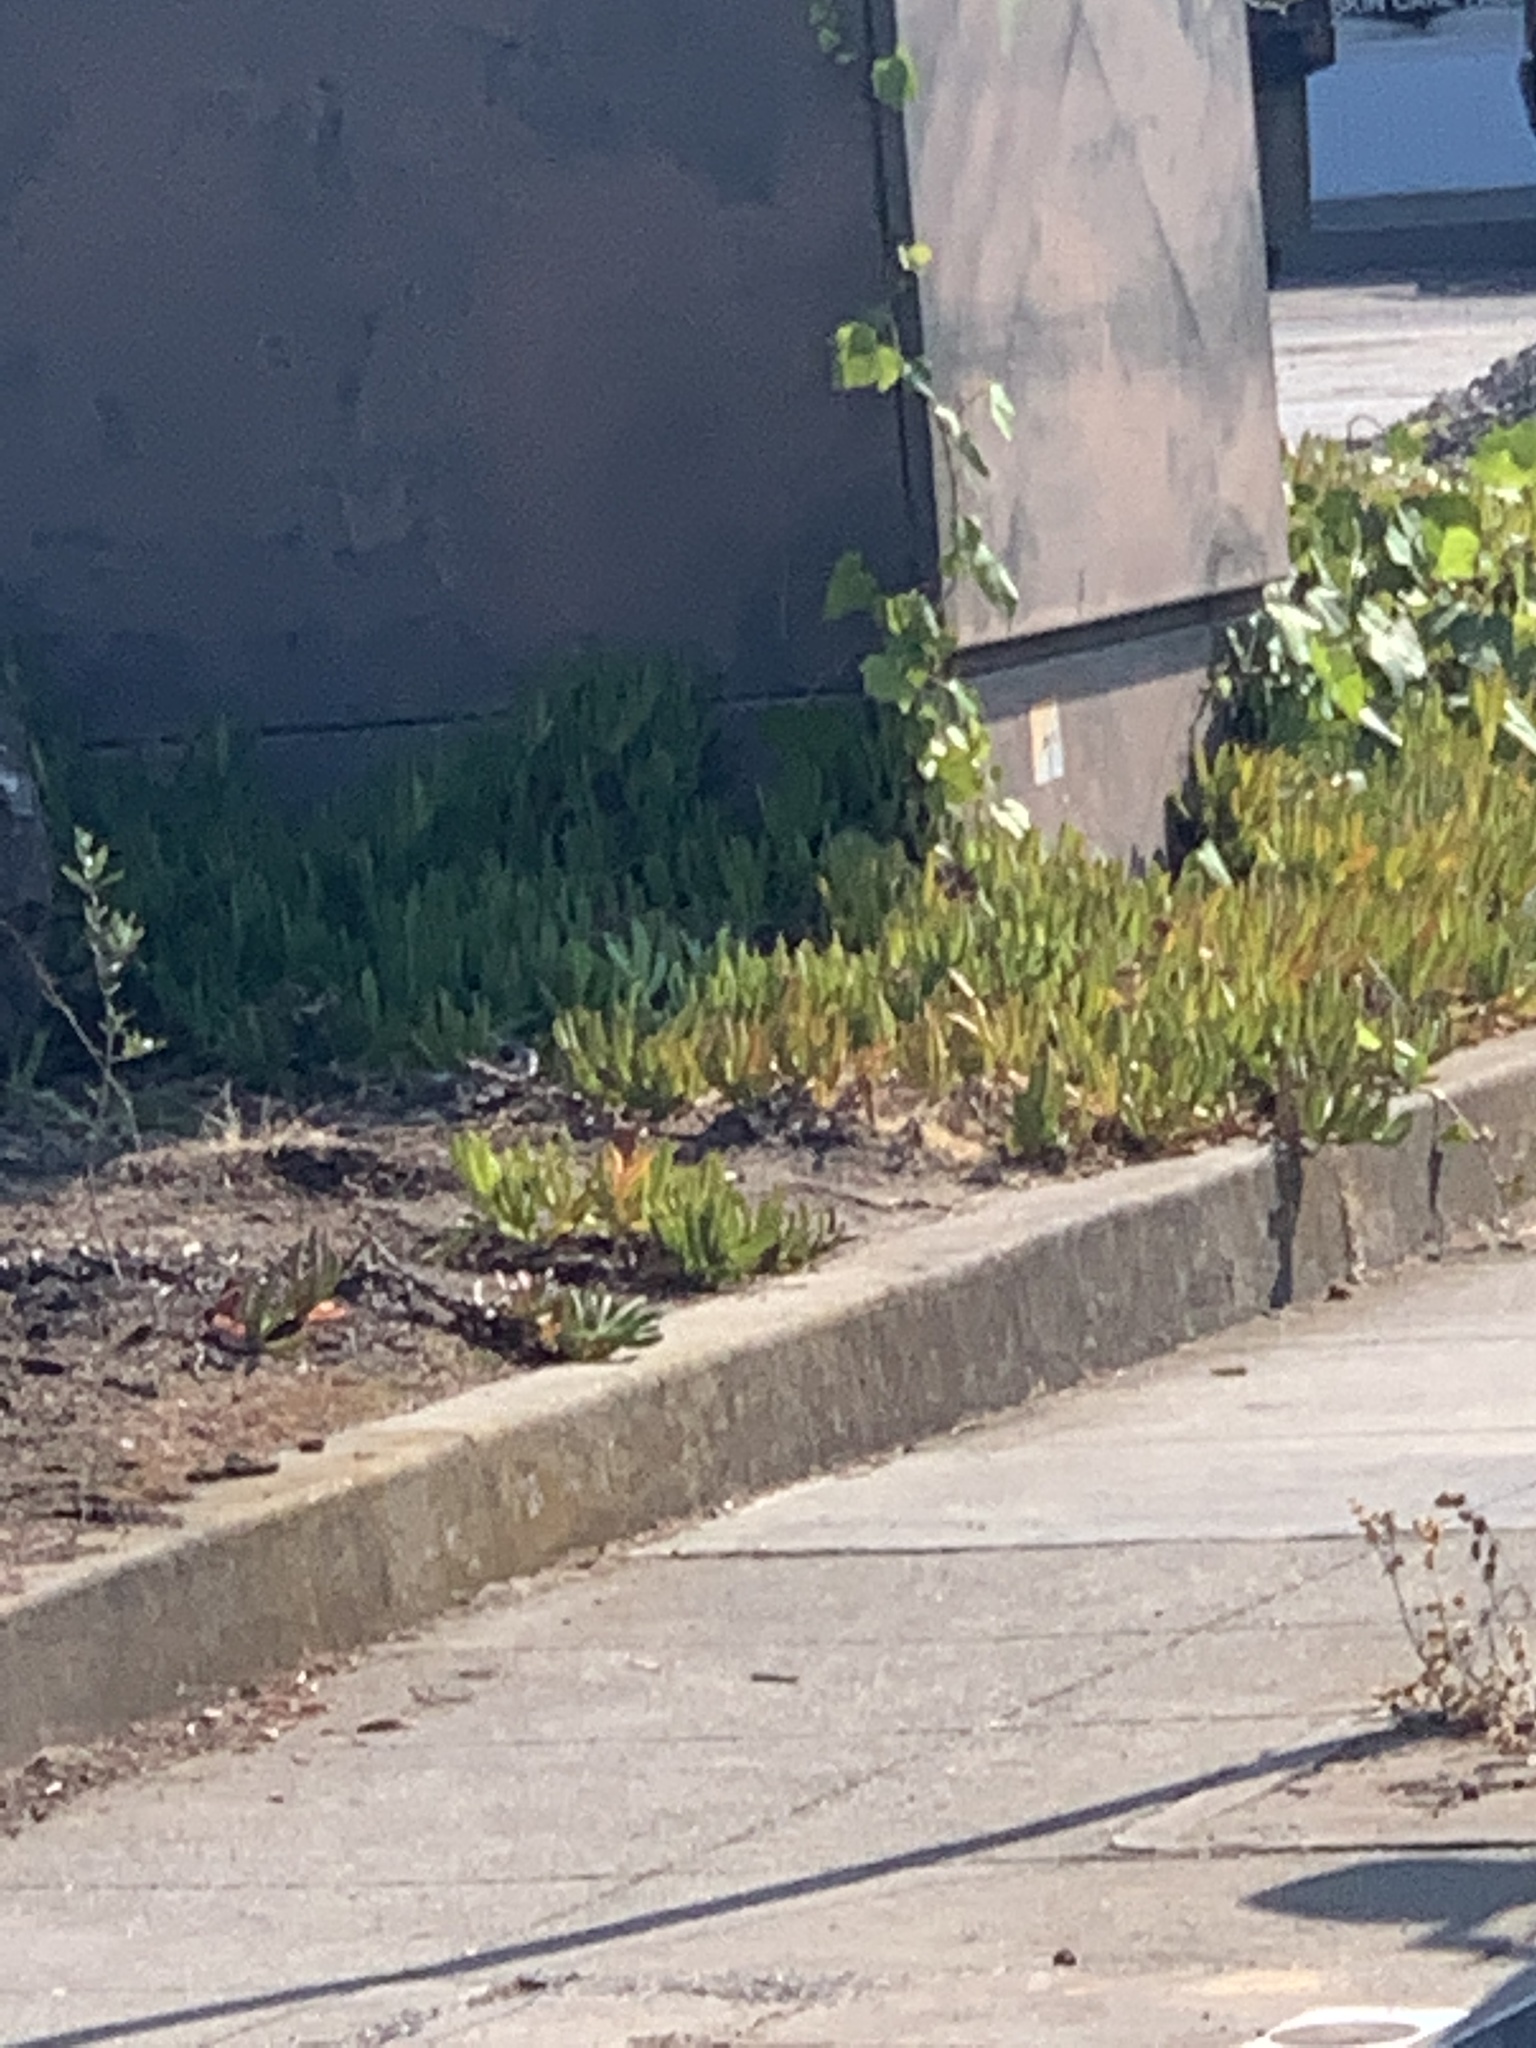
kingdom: Plantae
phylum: Tracheophyta
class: Magnoliopsida
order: Apiales
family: Araliaceae
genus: Hedera
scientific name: Hedera helix
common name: Ivy
